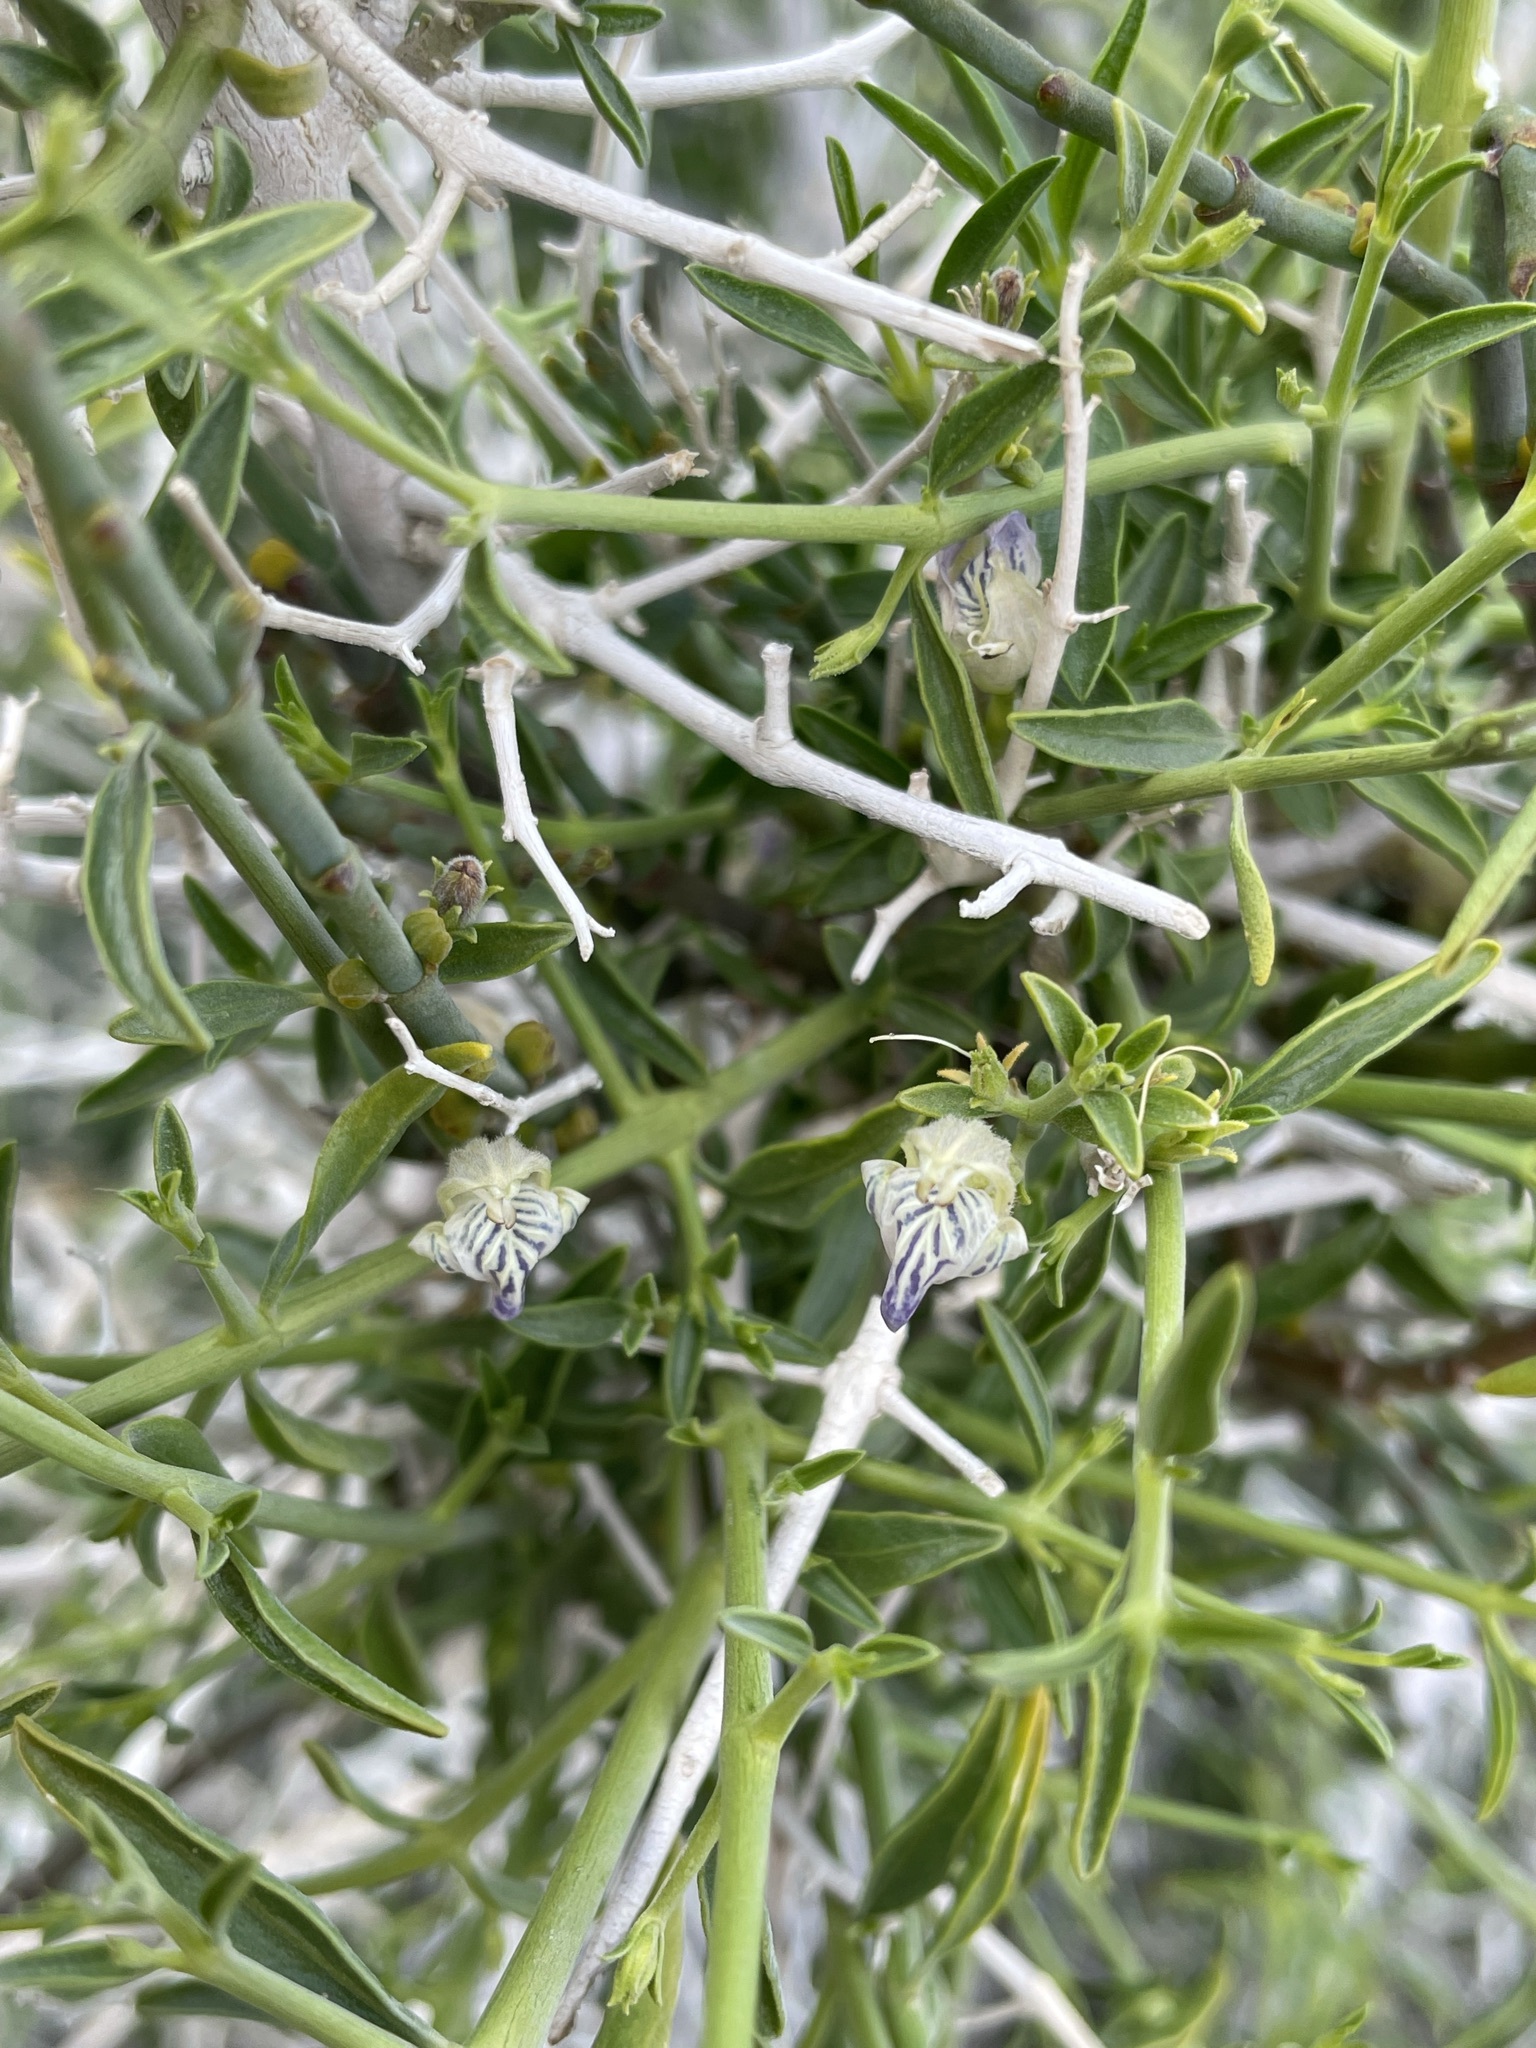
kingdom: Plantae
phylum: Tracheophyta
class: Magnoliopsida
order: Lamiales
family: Acanthaceae
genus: Pogonospermum
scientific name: Pogonospermum
